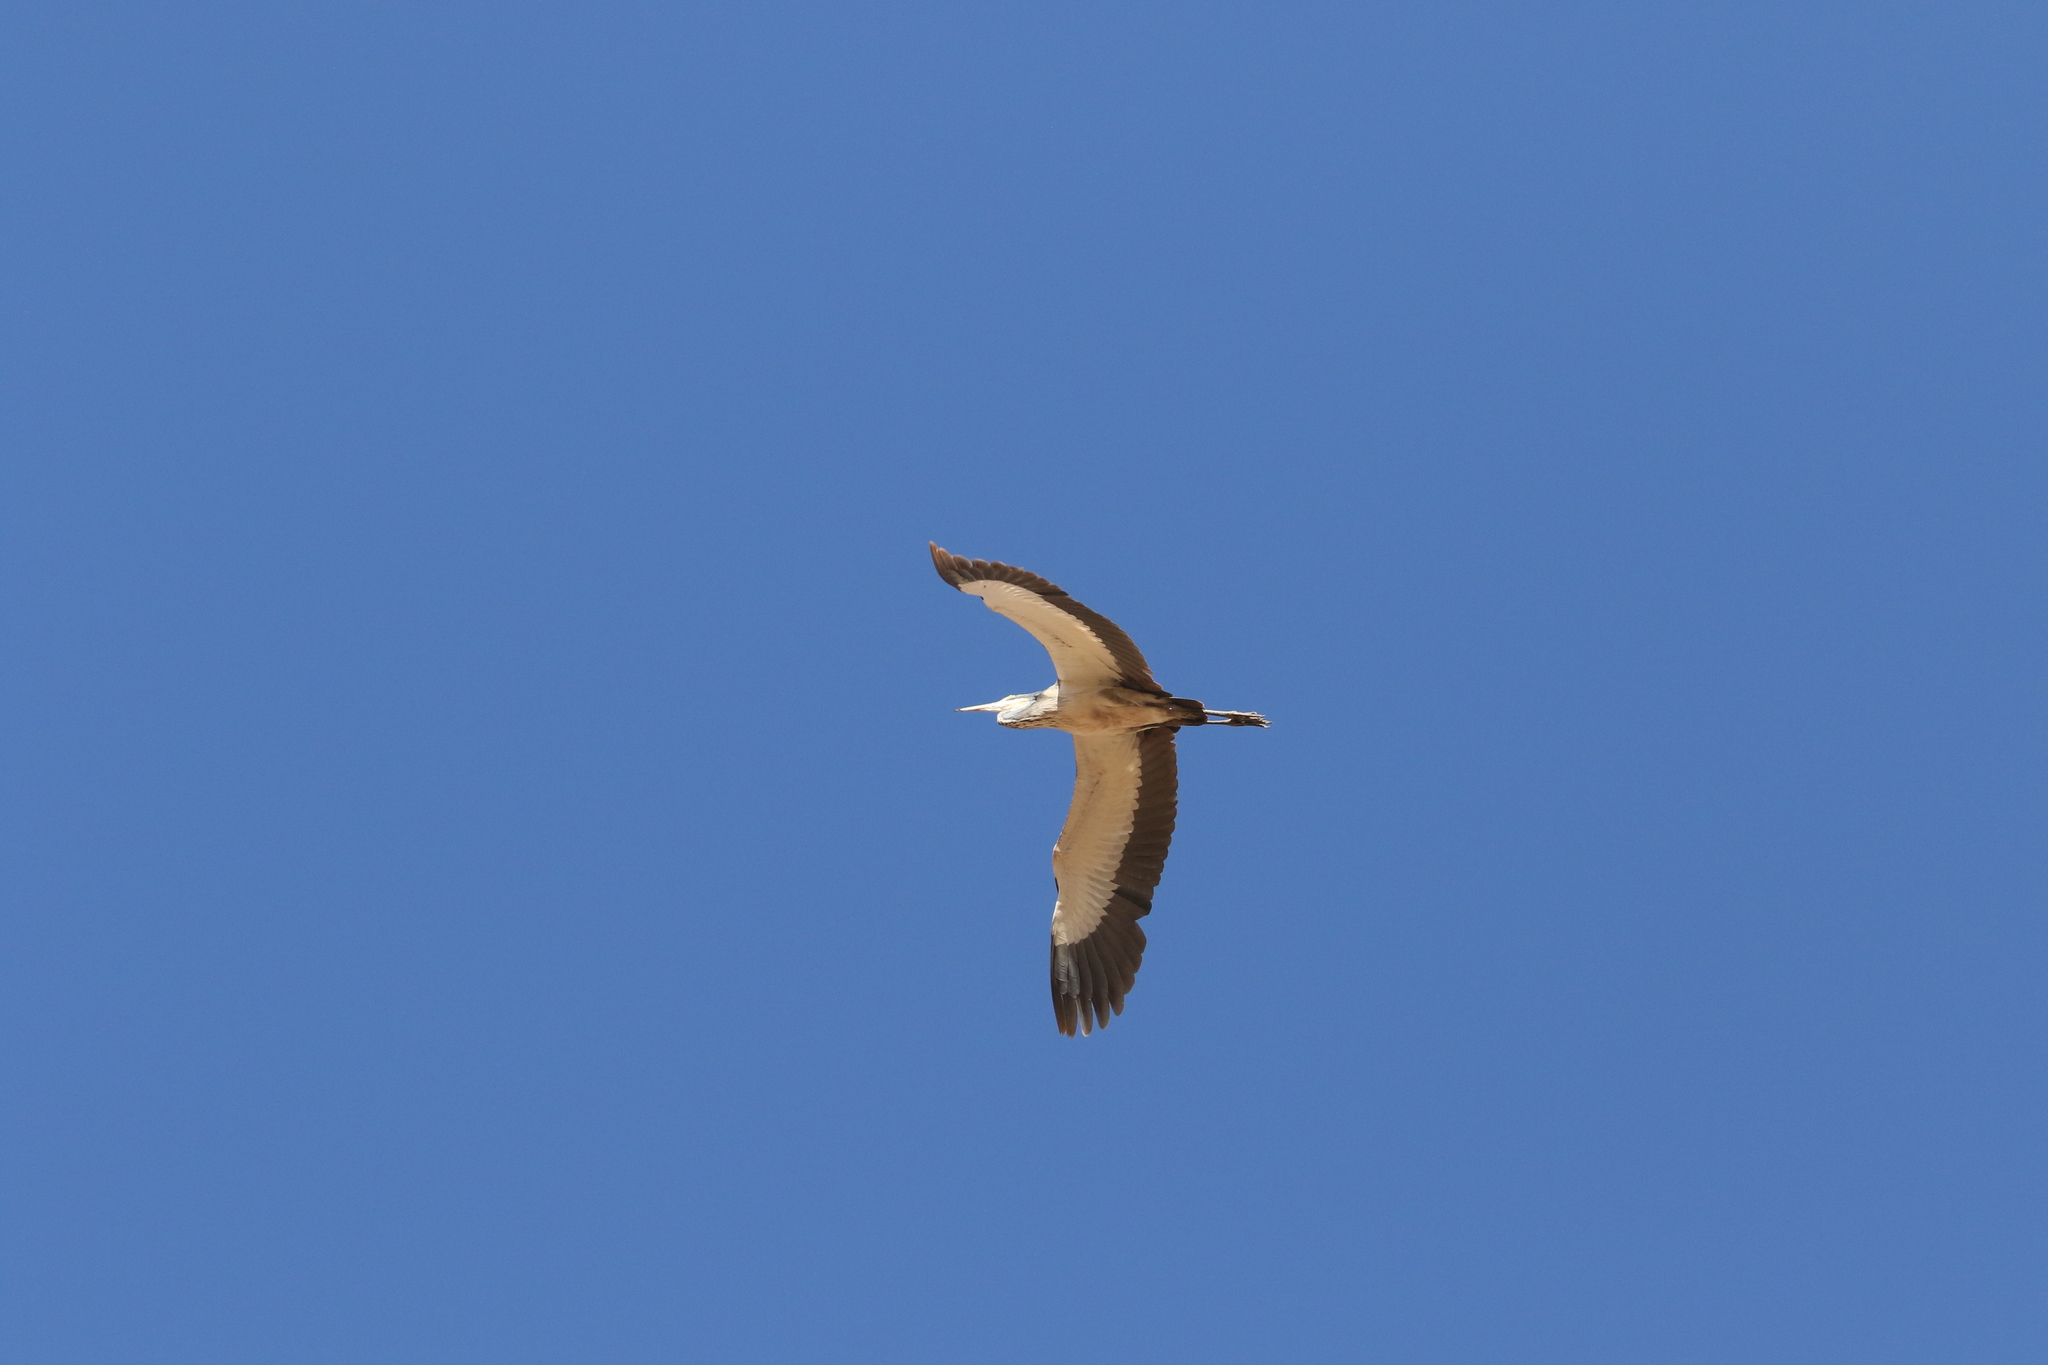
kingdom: Animalia
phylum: Chordata
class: Aves
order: Pelecaniformes
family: Ardeidae
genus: Ardea
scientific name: Ardea melanocephala
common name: Black-headed heron
